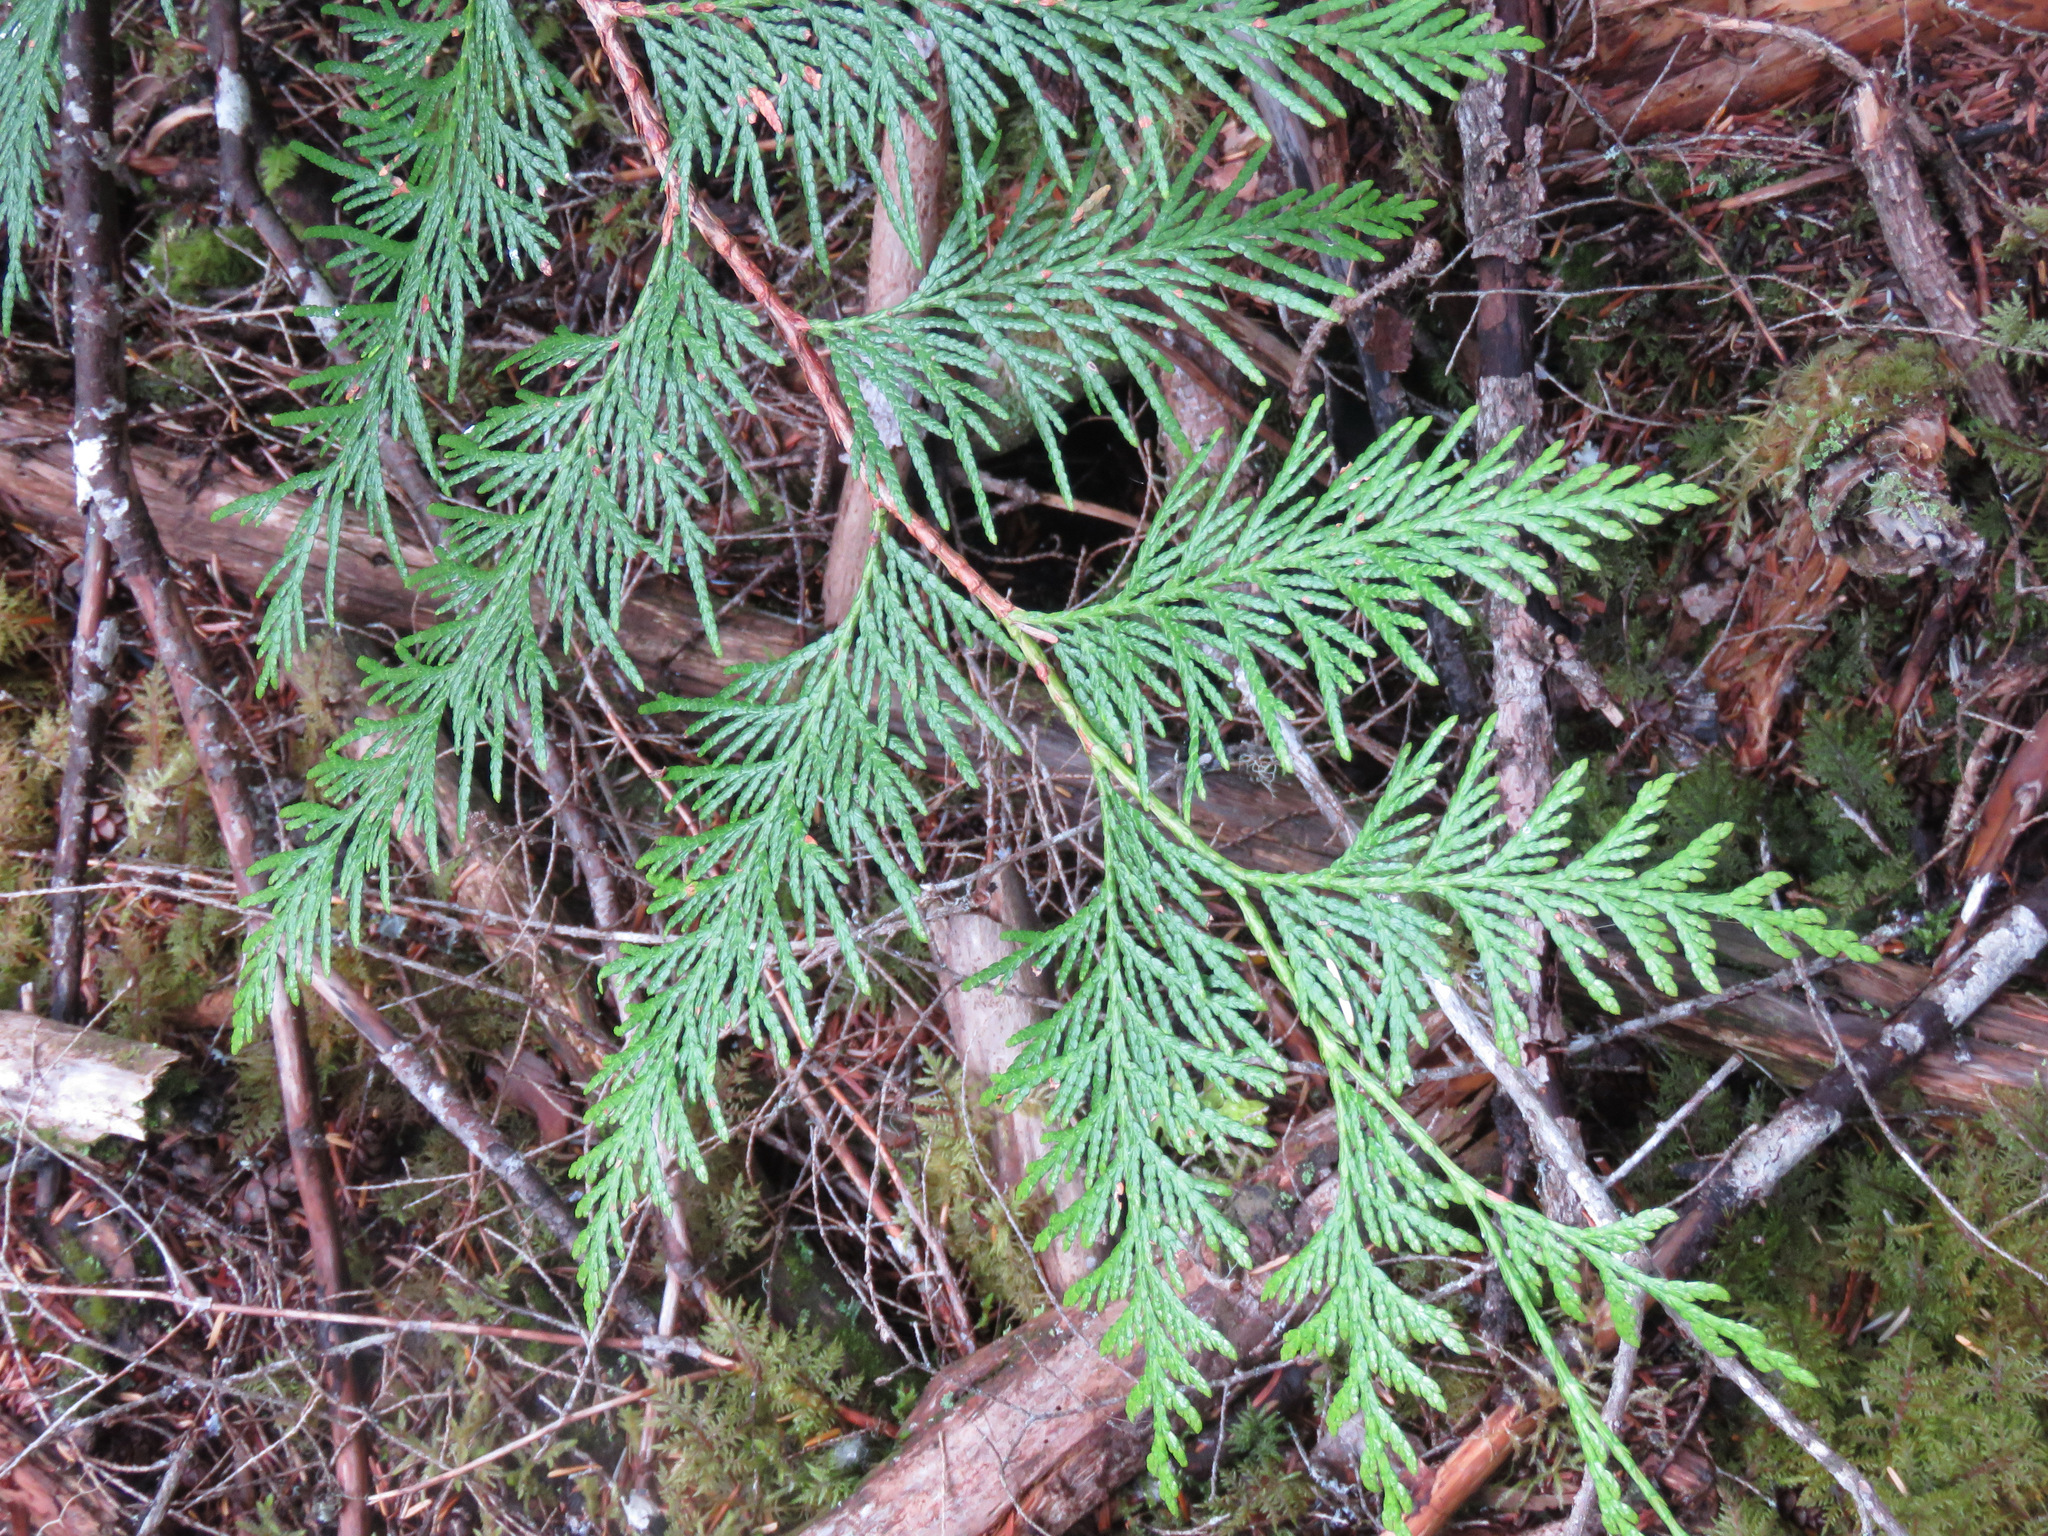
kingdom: Plantae
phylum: Tracheophyta
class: Pinopsida
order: Pinales
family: Cupressaceae
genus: Thuja
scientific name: Thuja plicata
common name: Western red-cedar
